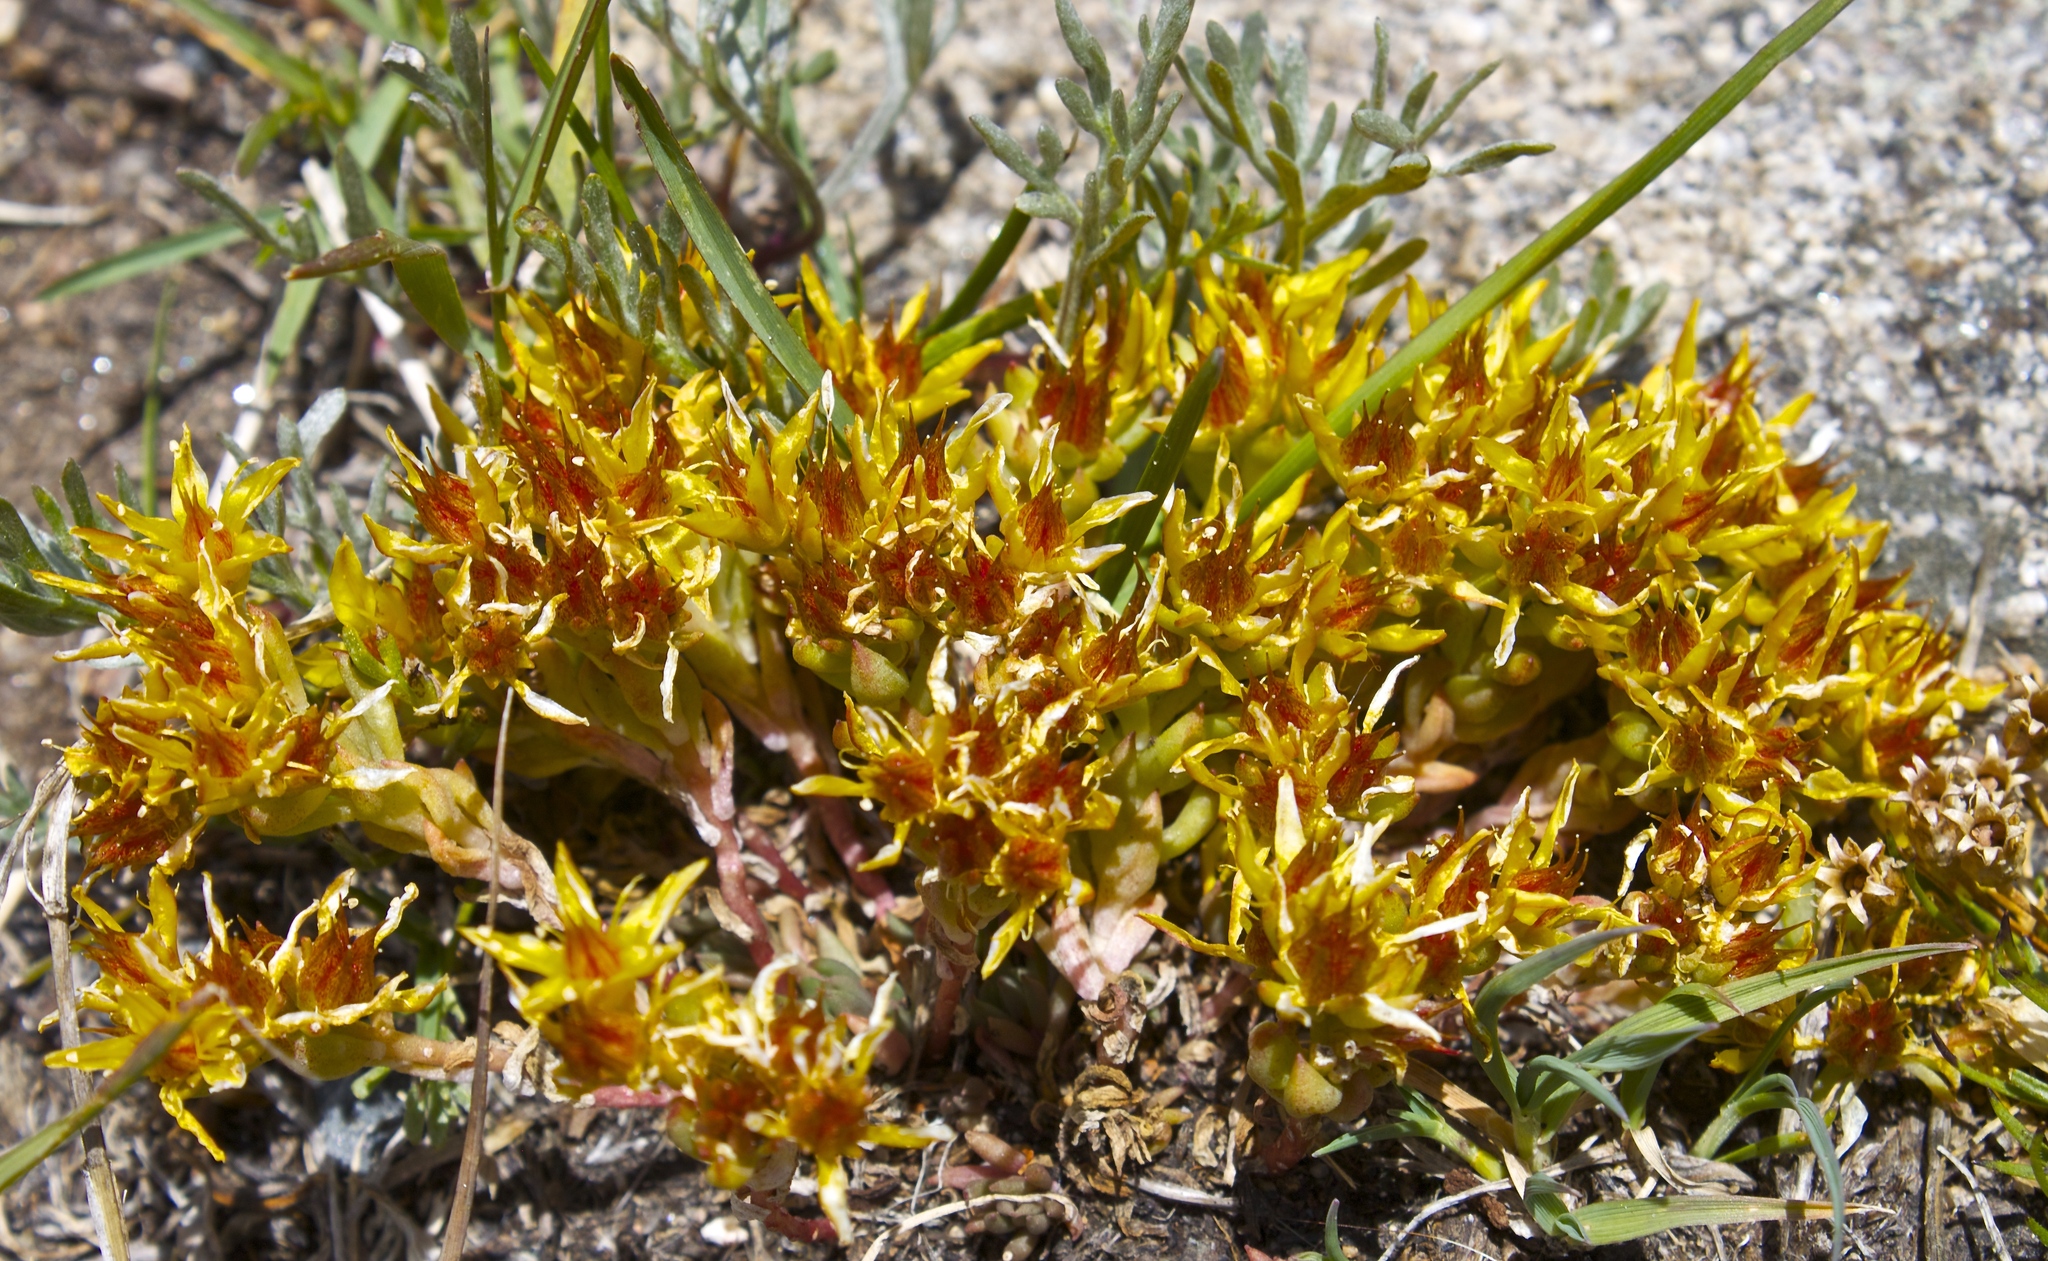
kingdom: Plantae
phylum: Tracheophyta
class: Magnoliopsida
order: Saxifragales
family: Crassulaceae
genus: Sedum
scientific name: Sedum lanceolatum
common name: Common stonecrop
